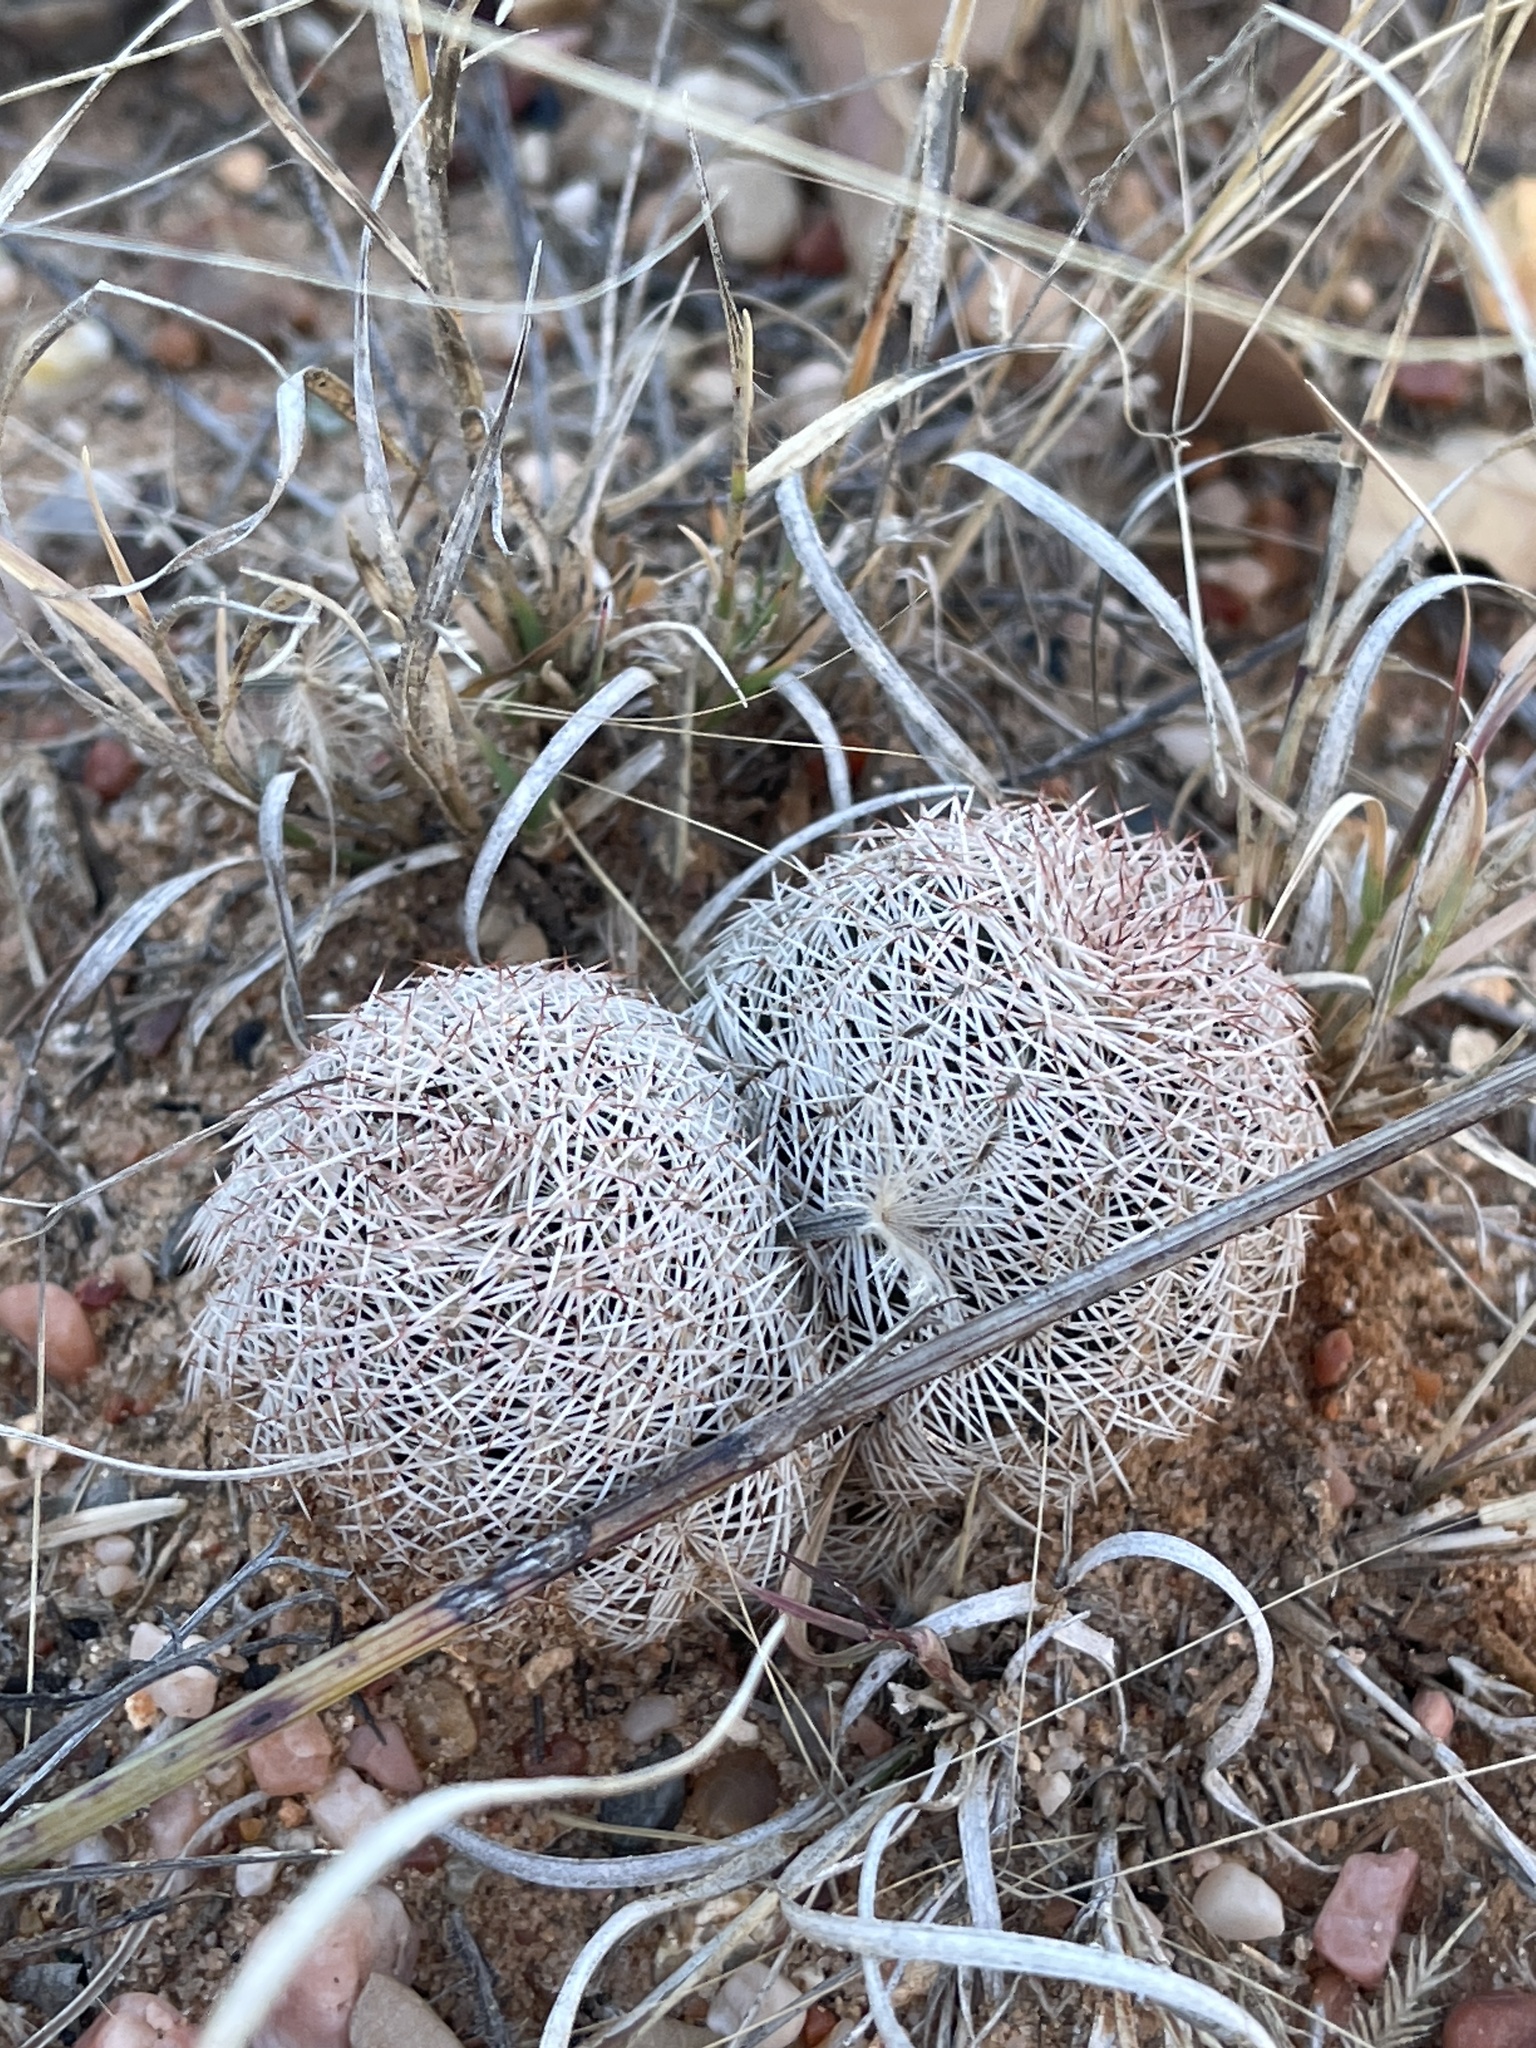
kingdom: Plantae
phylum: Tracheophyta
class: Magnoliopsida
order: Caryophyllales
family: Cactaceae
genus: Echinocereus
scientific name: Echinocereus reichenbachii
